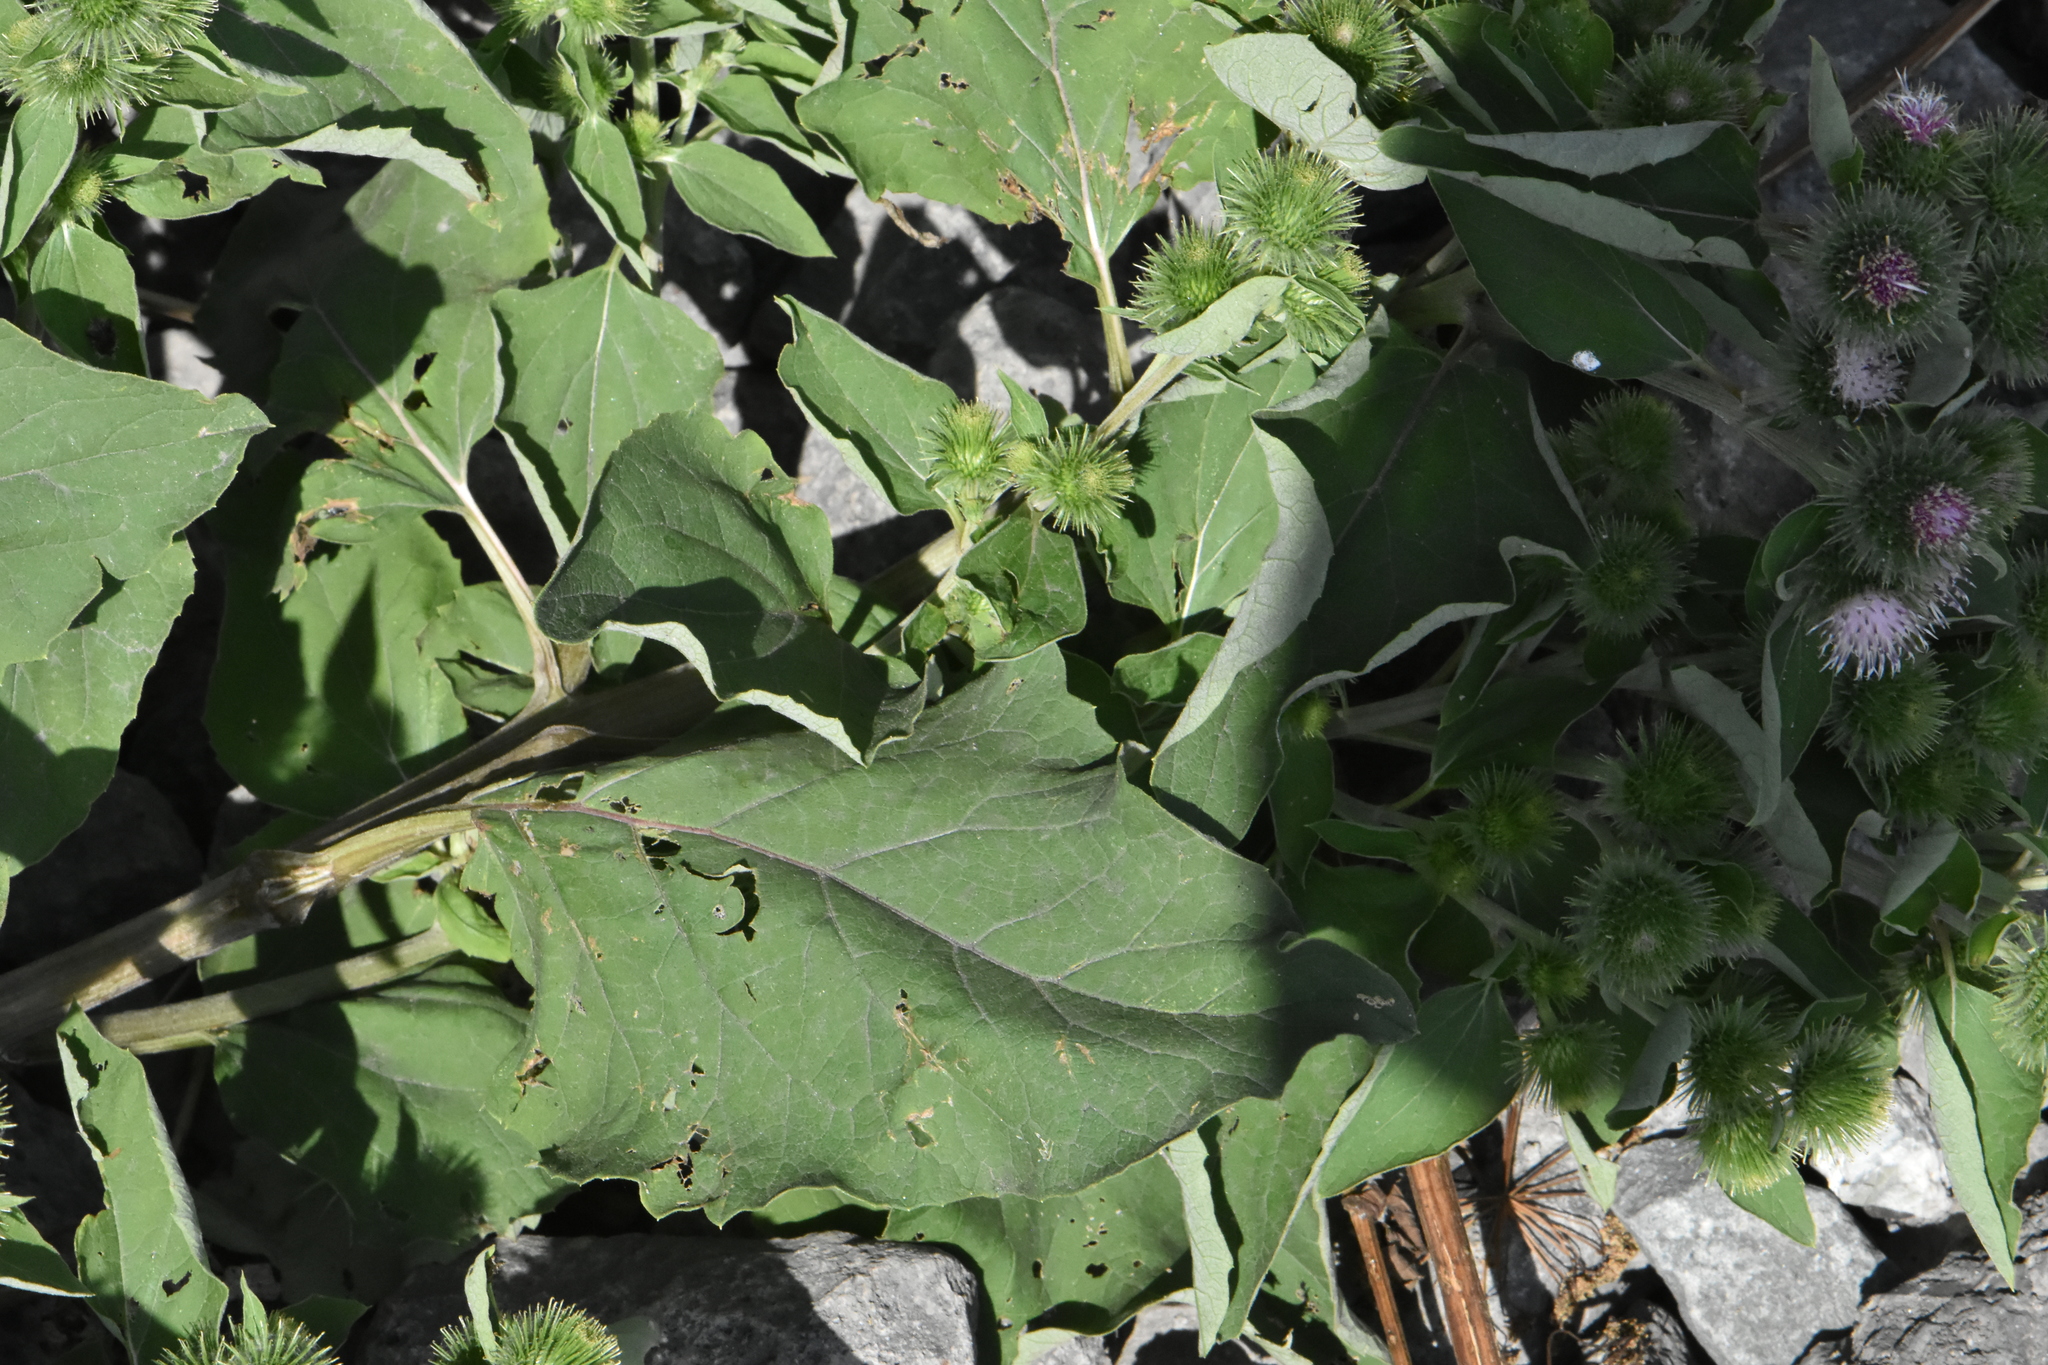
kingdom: Plantae
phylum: Tracheophyta
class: Magnoliopsida
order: Asterales
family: Asteraceae
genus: Arctium
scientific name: Arctium minus
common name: Lesser burdock
